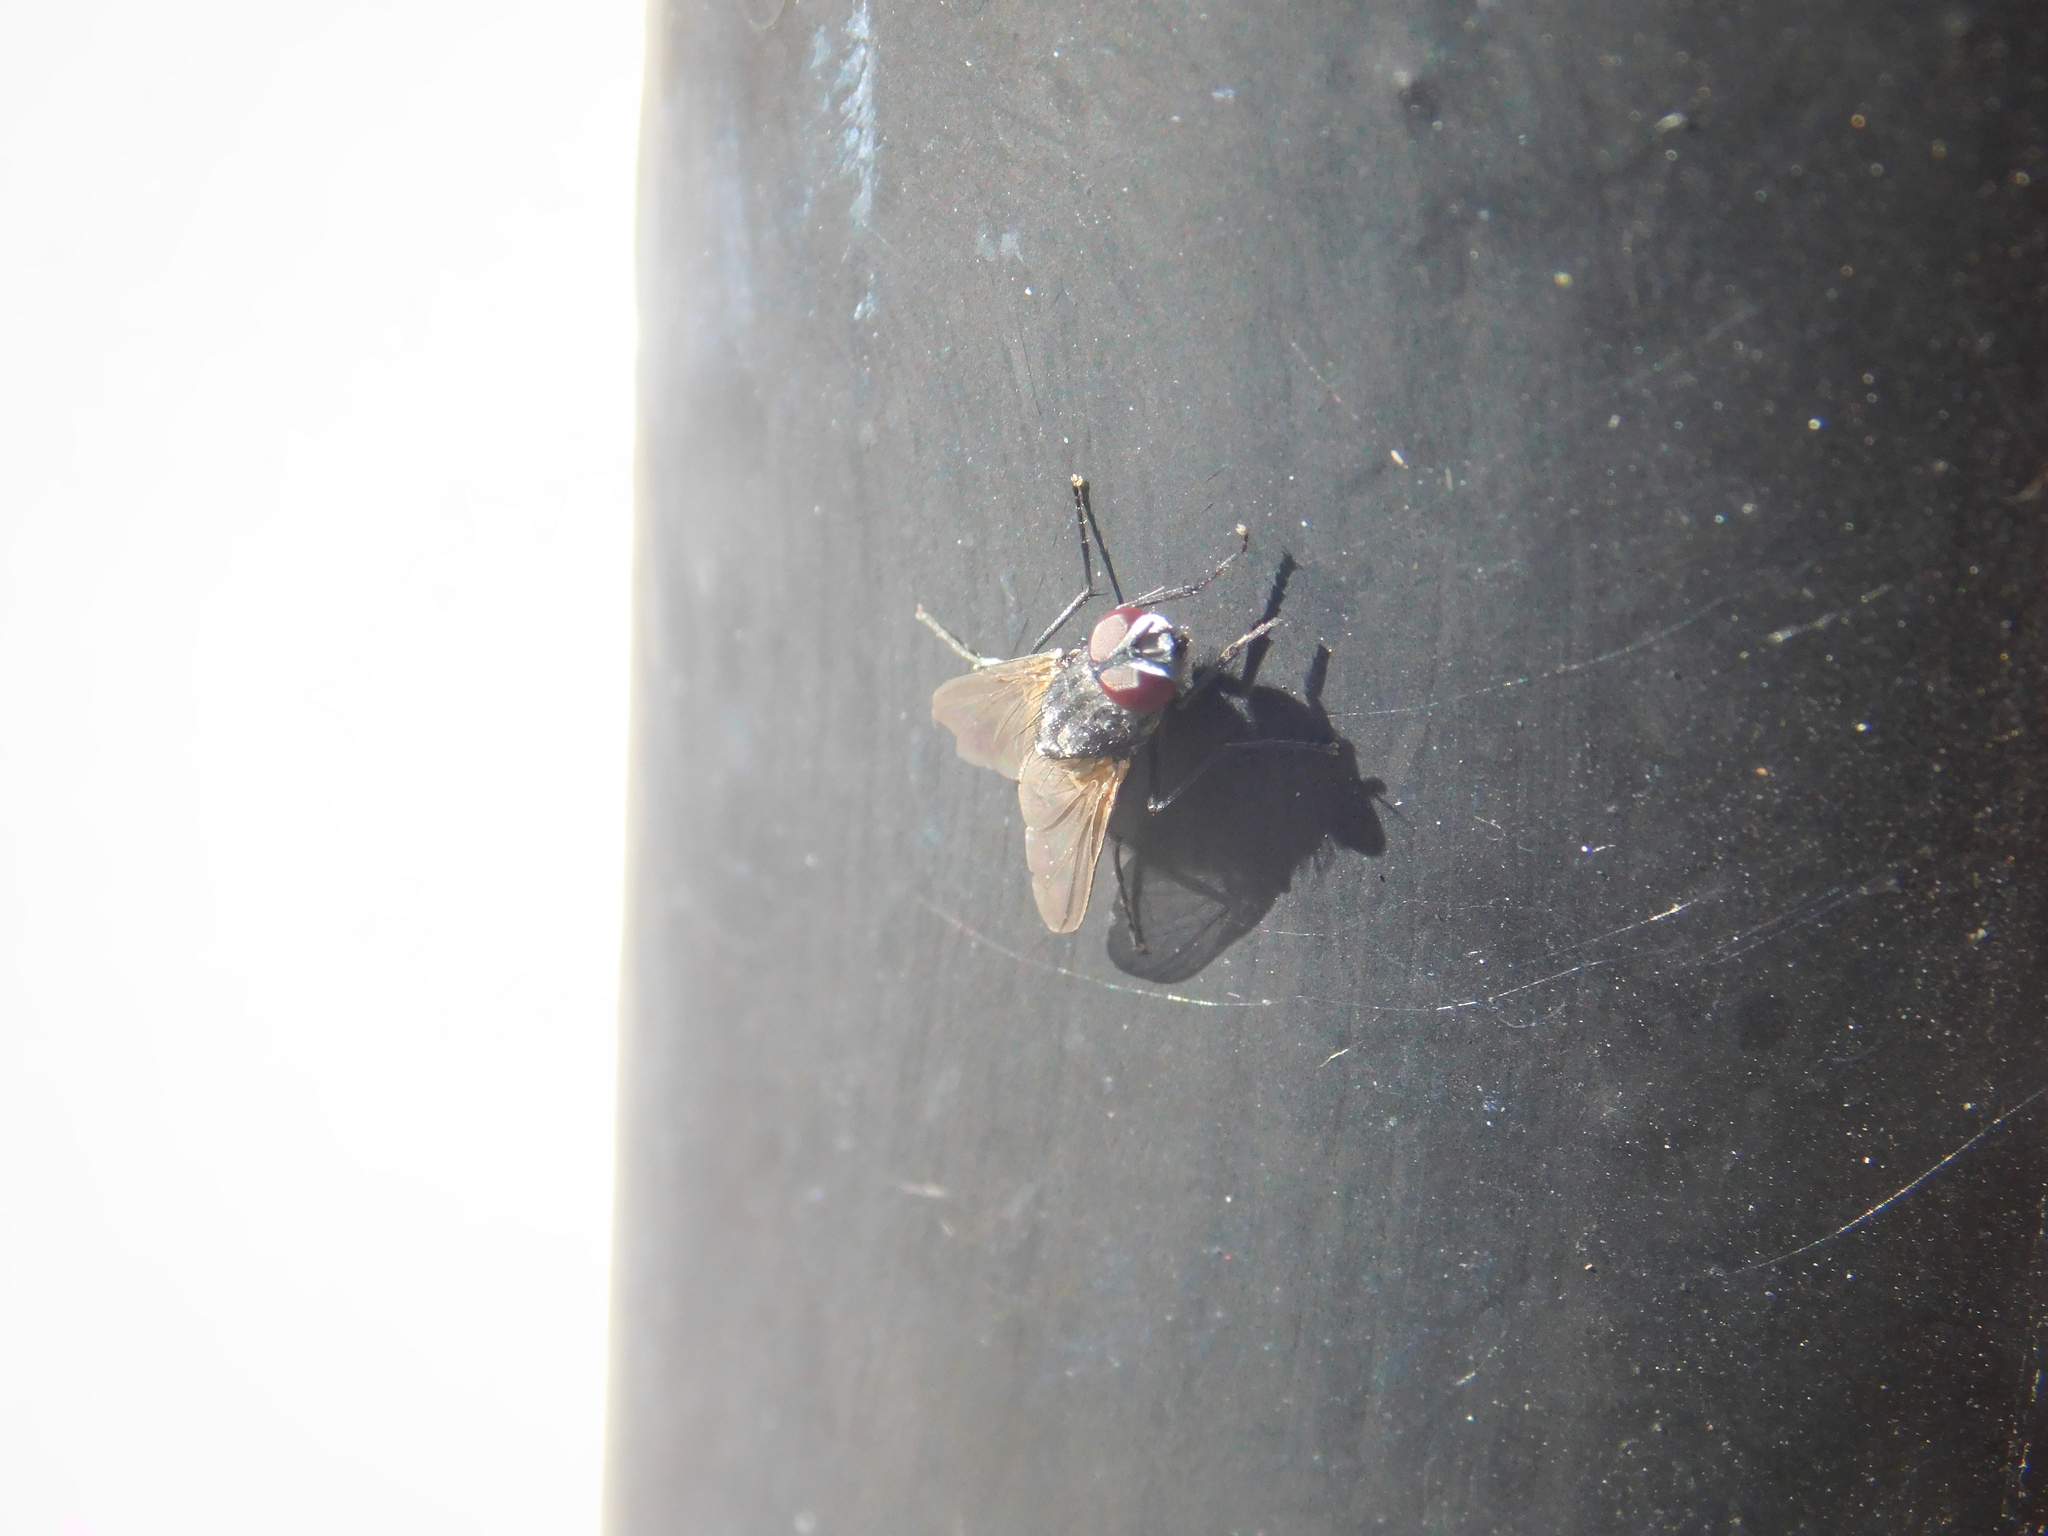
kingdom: Animalia
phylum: Arthropoda
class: Insecta
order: Diptera
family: Muscidae
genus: Musca
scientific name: Musca domestica
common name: House fly
